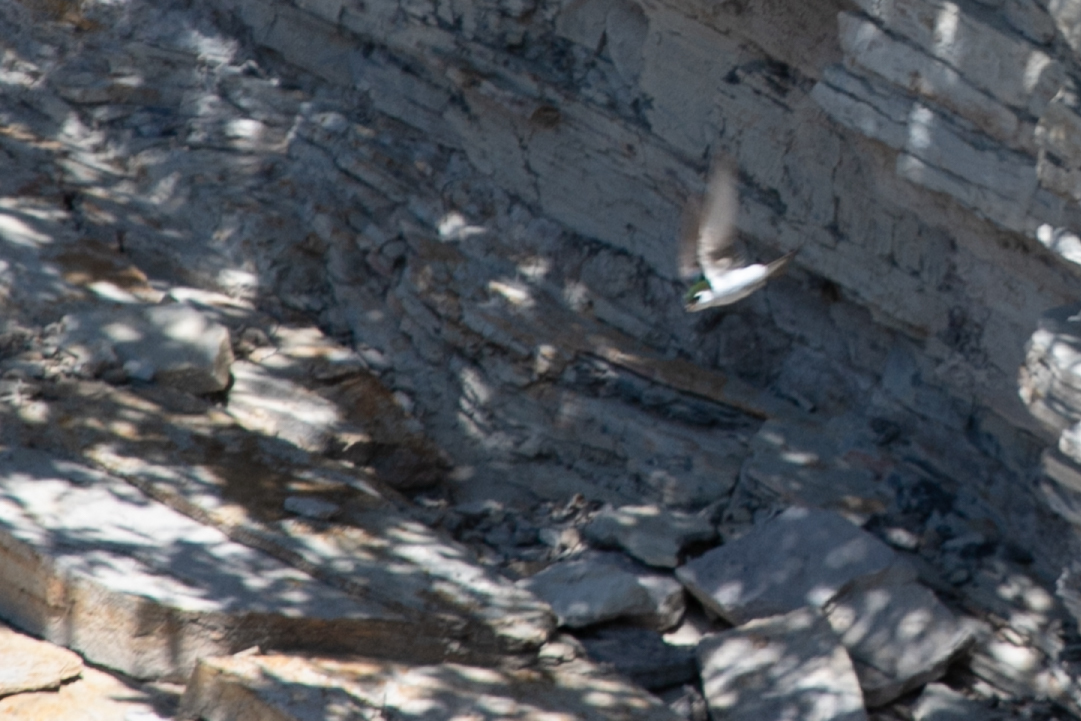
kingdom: Animalia
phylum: Chordata
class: Aves
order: Passeriformes
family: Hirundinidae
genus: Tachycineta
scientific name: Tachycineta thalassina
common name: Violet-green swallow
